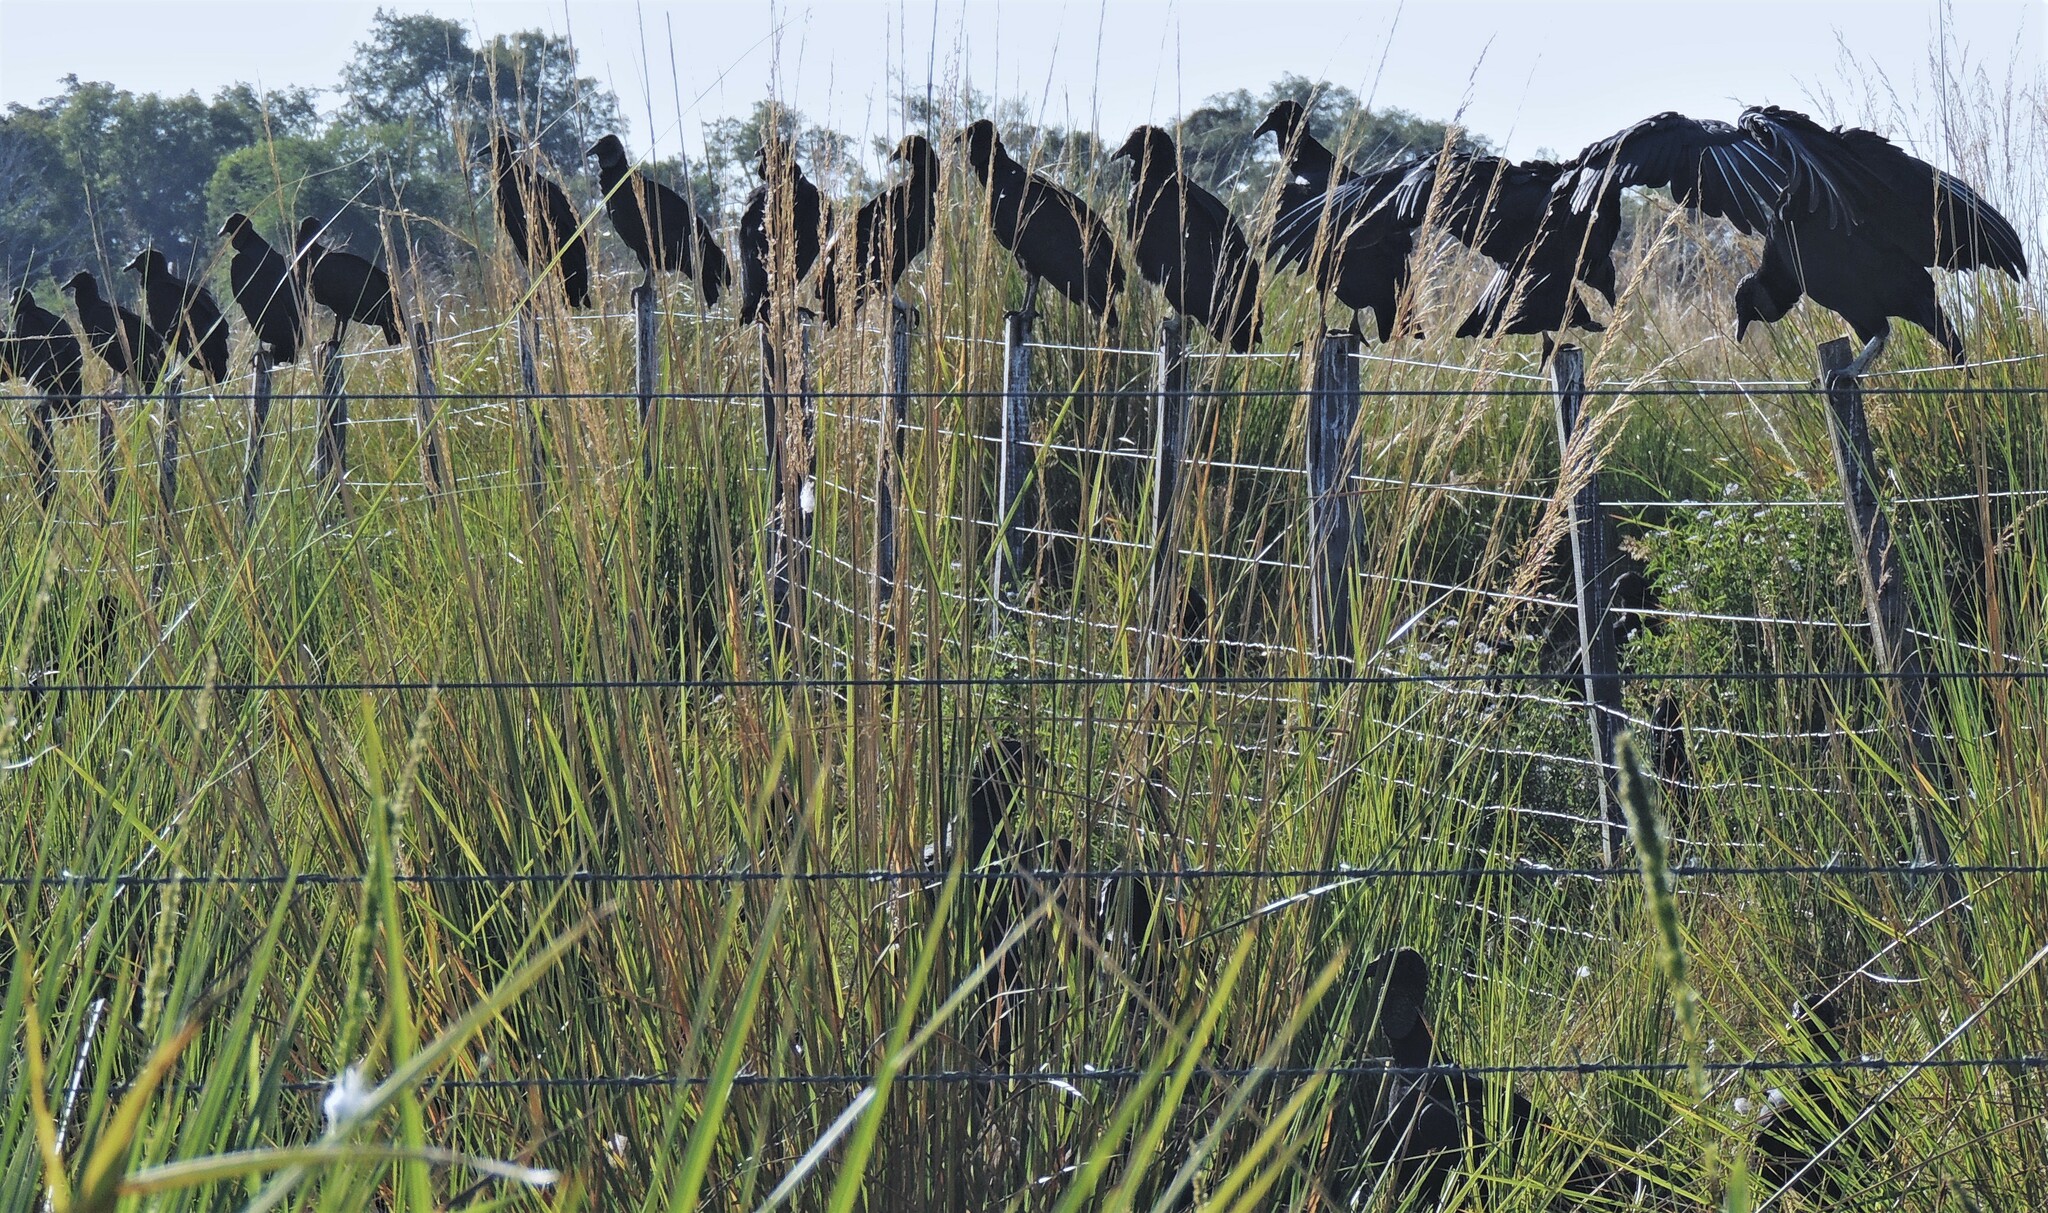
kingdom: Animalia
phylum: Chordata
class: Aves
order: Accipitriformes
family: Cathartidae
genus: Coragyps
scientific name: Coragyps atratus
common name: Black vulture
